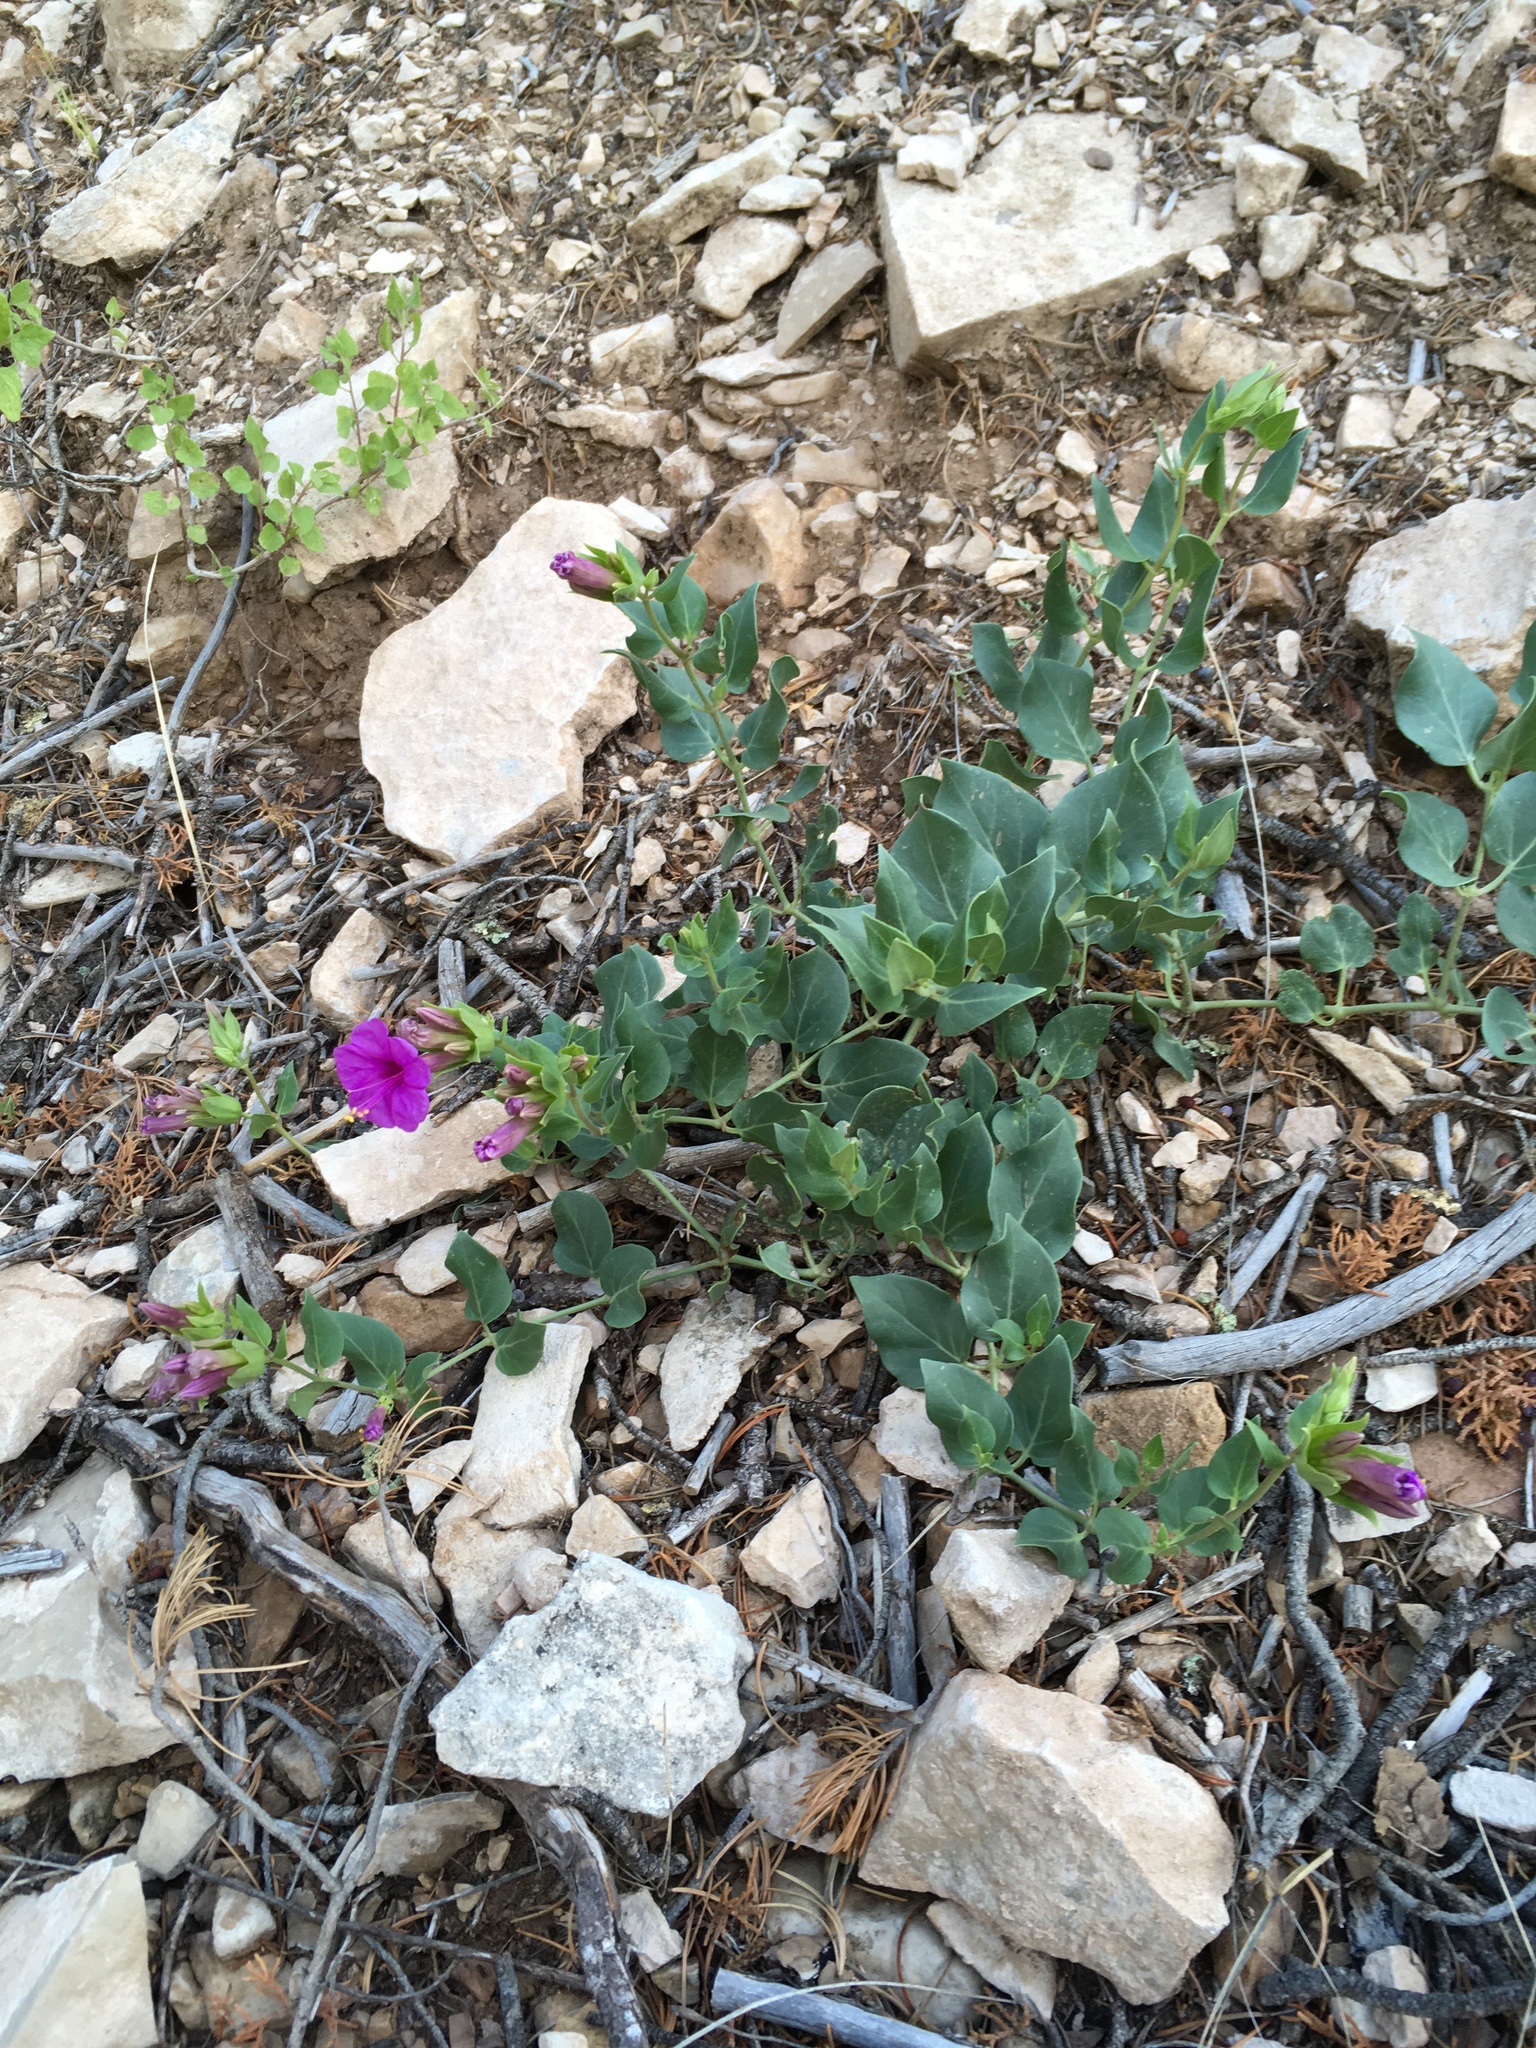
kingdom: Plantae
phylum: Tracheophyta
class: Magnoliopsida
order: Caryophyllales
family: Nyctaginaceae
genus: Mirabilis
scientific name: Mirabilis multiflora
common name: Froebel's four-o'clock
